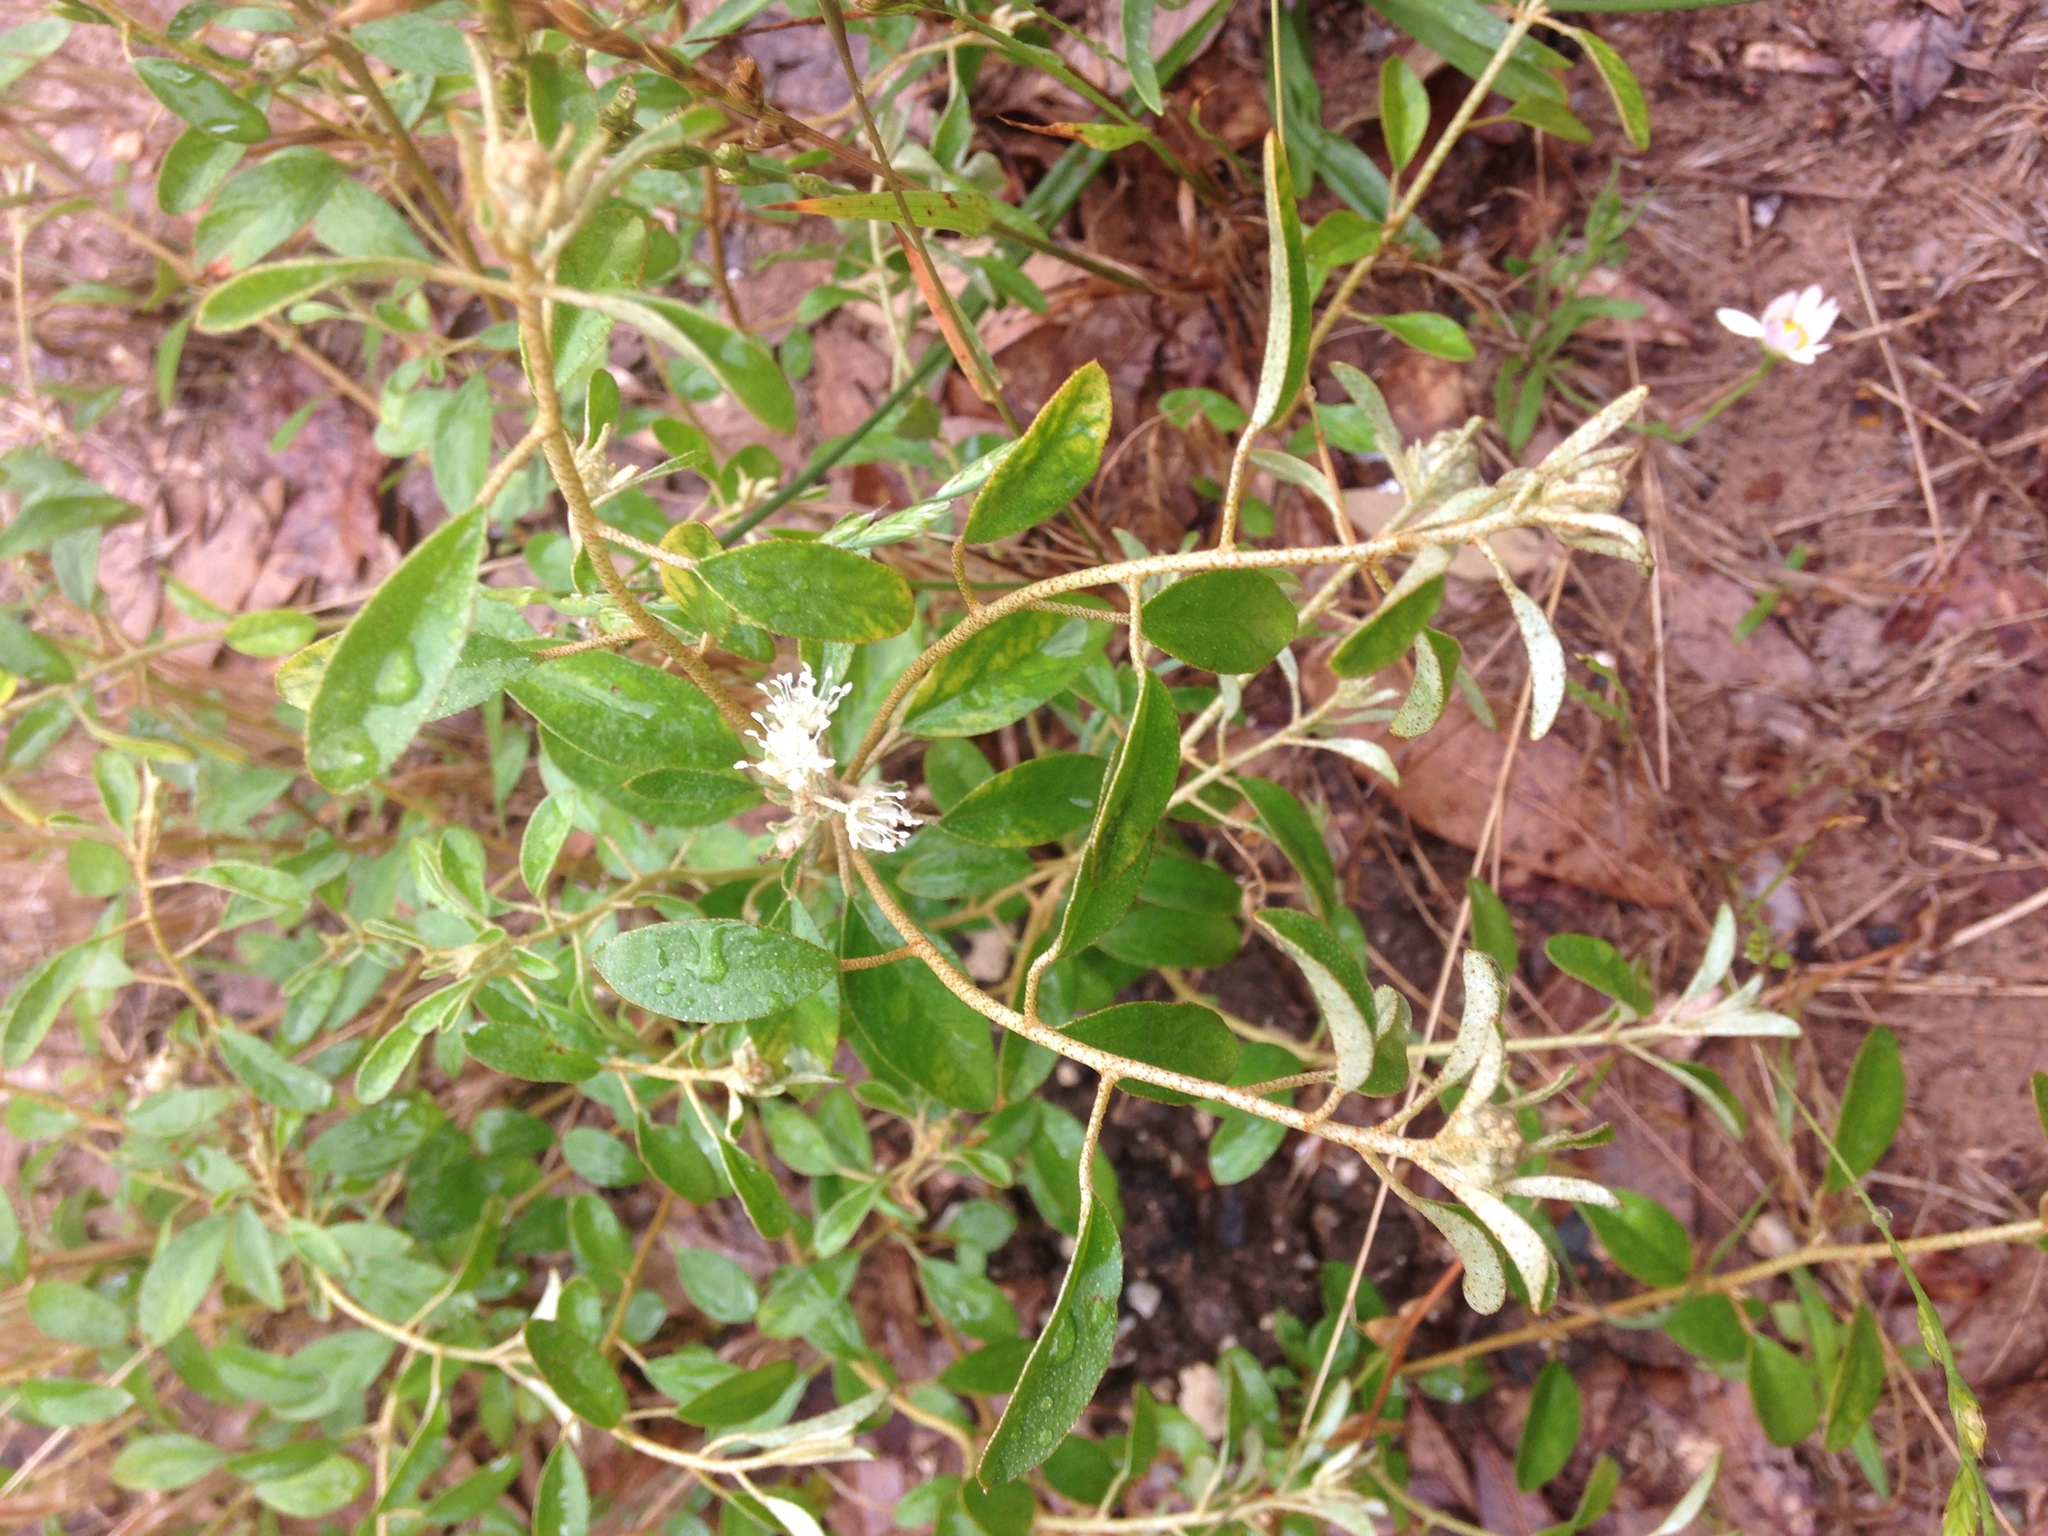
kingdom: Plantae
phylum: Tracheophyta
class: Magnoliopsida
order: Malpighiales
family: Euphorbiaceae
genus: Croton
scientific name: Croton argyranthemus
